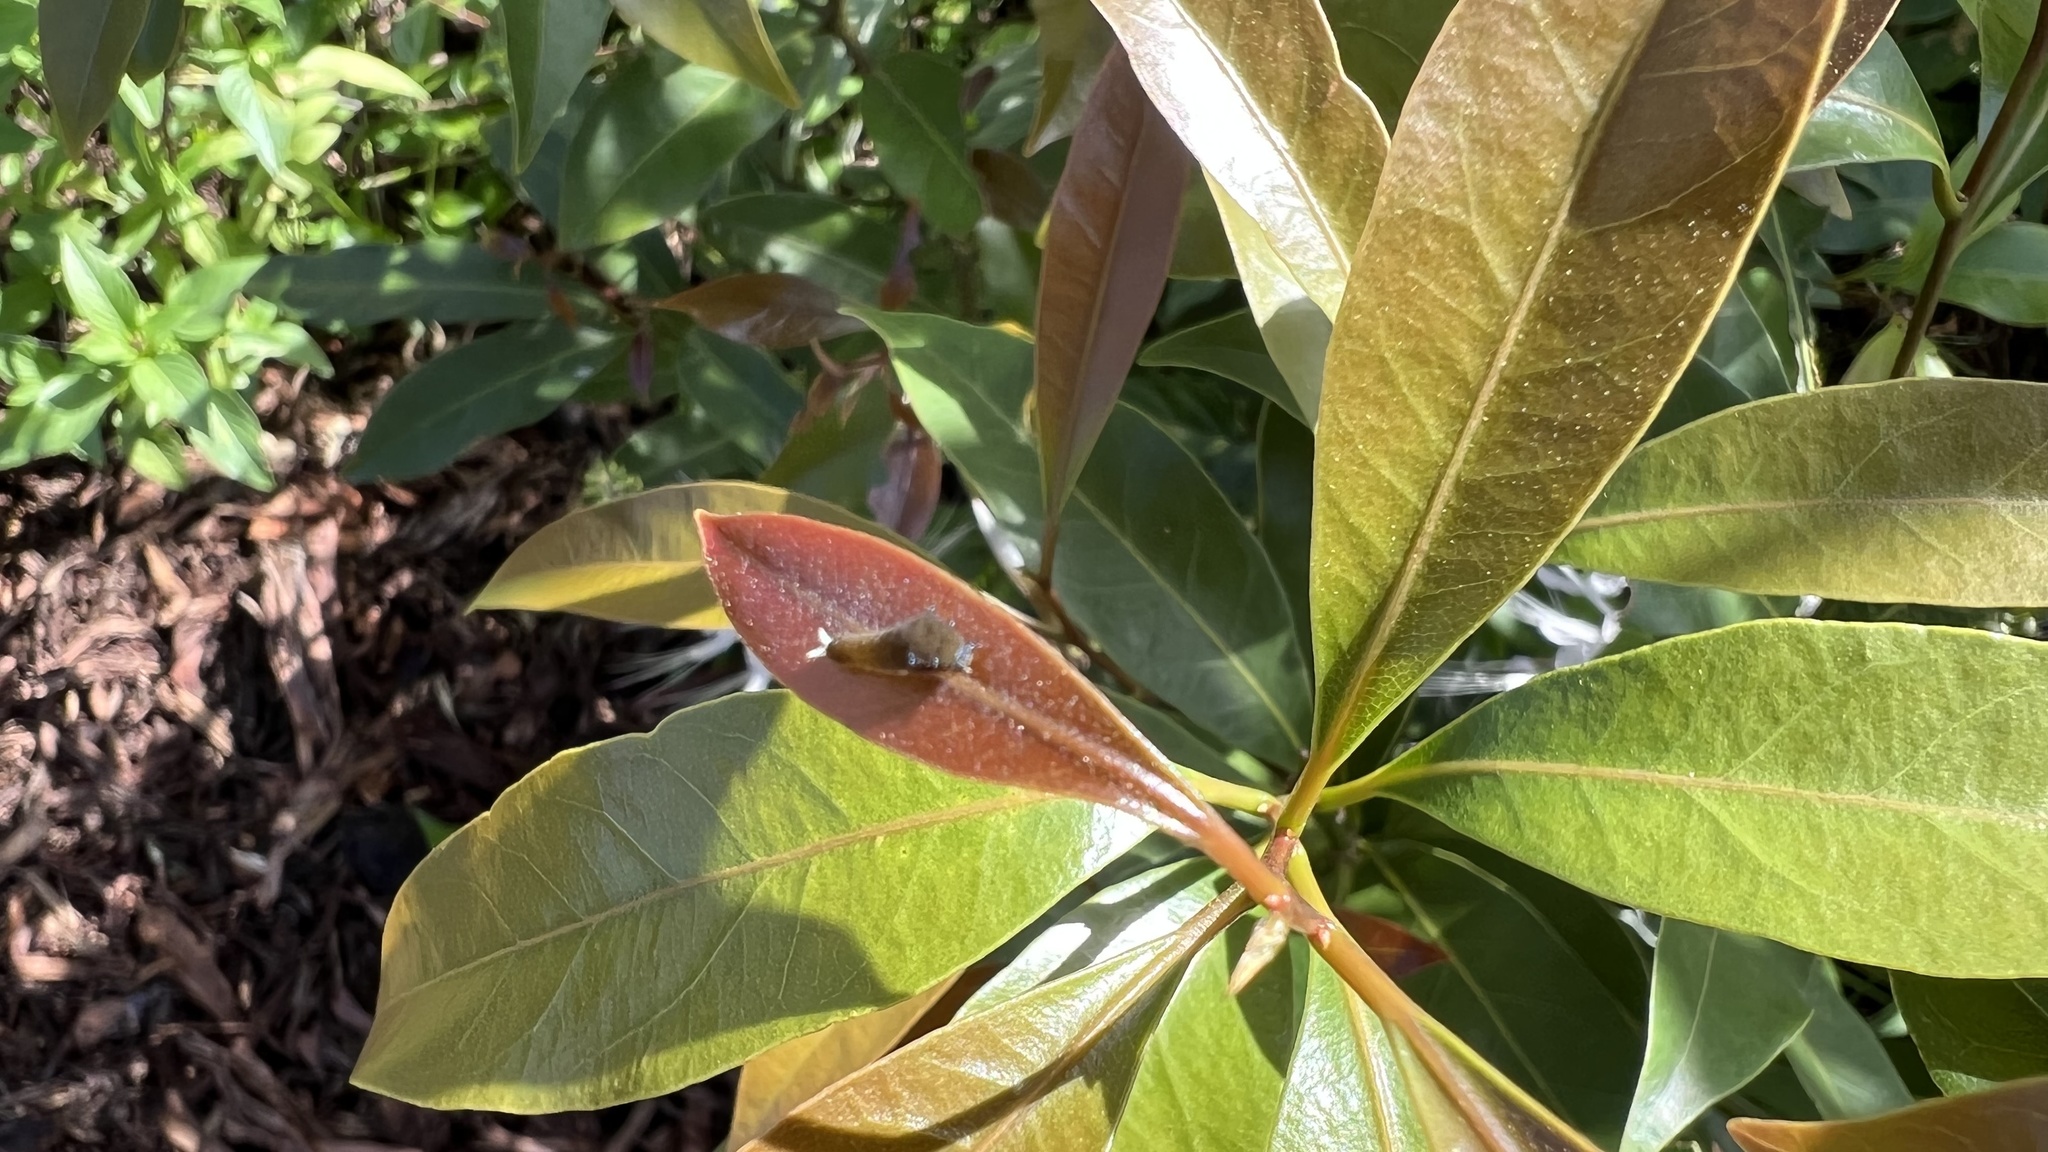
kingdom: Animalia
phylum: Arthropoda
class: Insecta
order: Lepidoptera
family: Papilionidae
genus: Graphium
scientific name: Graphium
